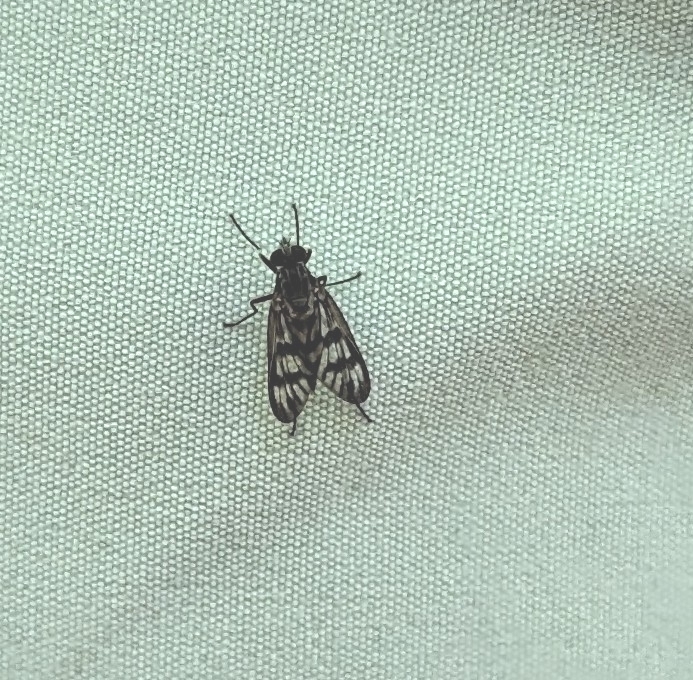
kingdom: Animalia
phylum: Arthropoda
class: Insecta
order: Diptera
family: Rhagionidae
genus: Rhagio
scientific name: Rhagio mystaceus
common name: Common snipe fly
